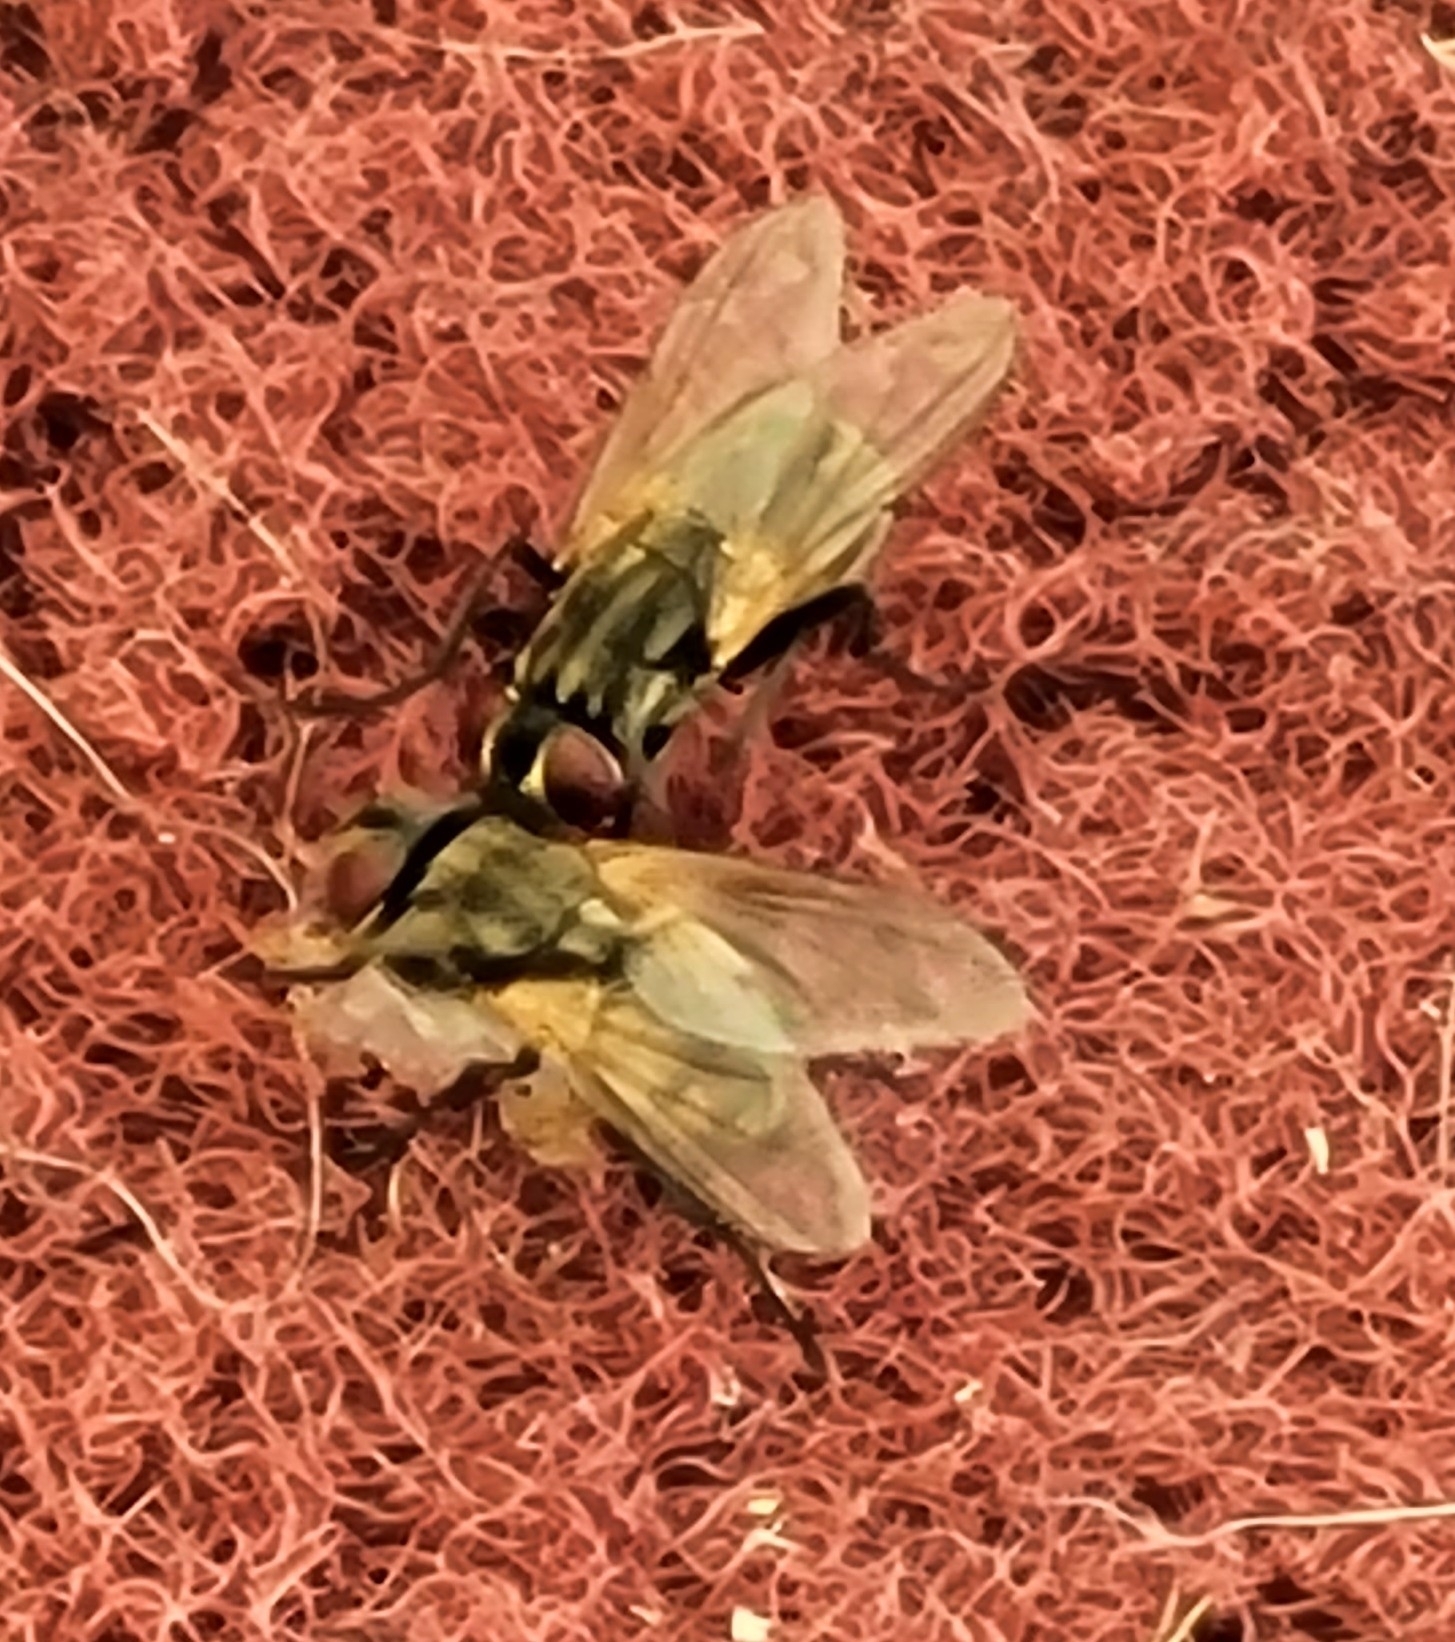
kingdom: Animalia
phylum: Arthropoda
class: Insecta
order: Diptera
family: Muscidae
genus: Musca
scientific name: Musca domestica
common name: House fly
